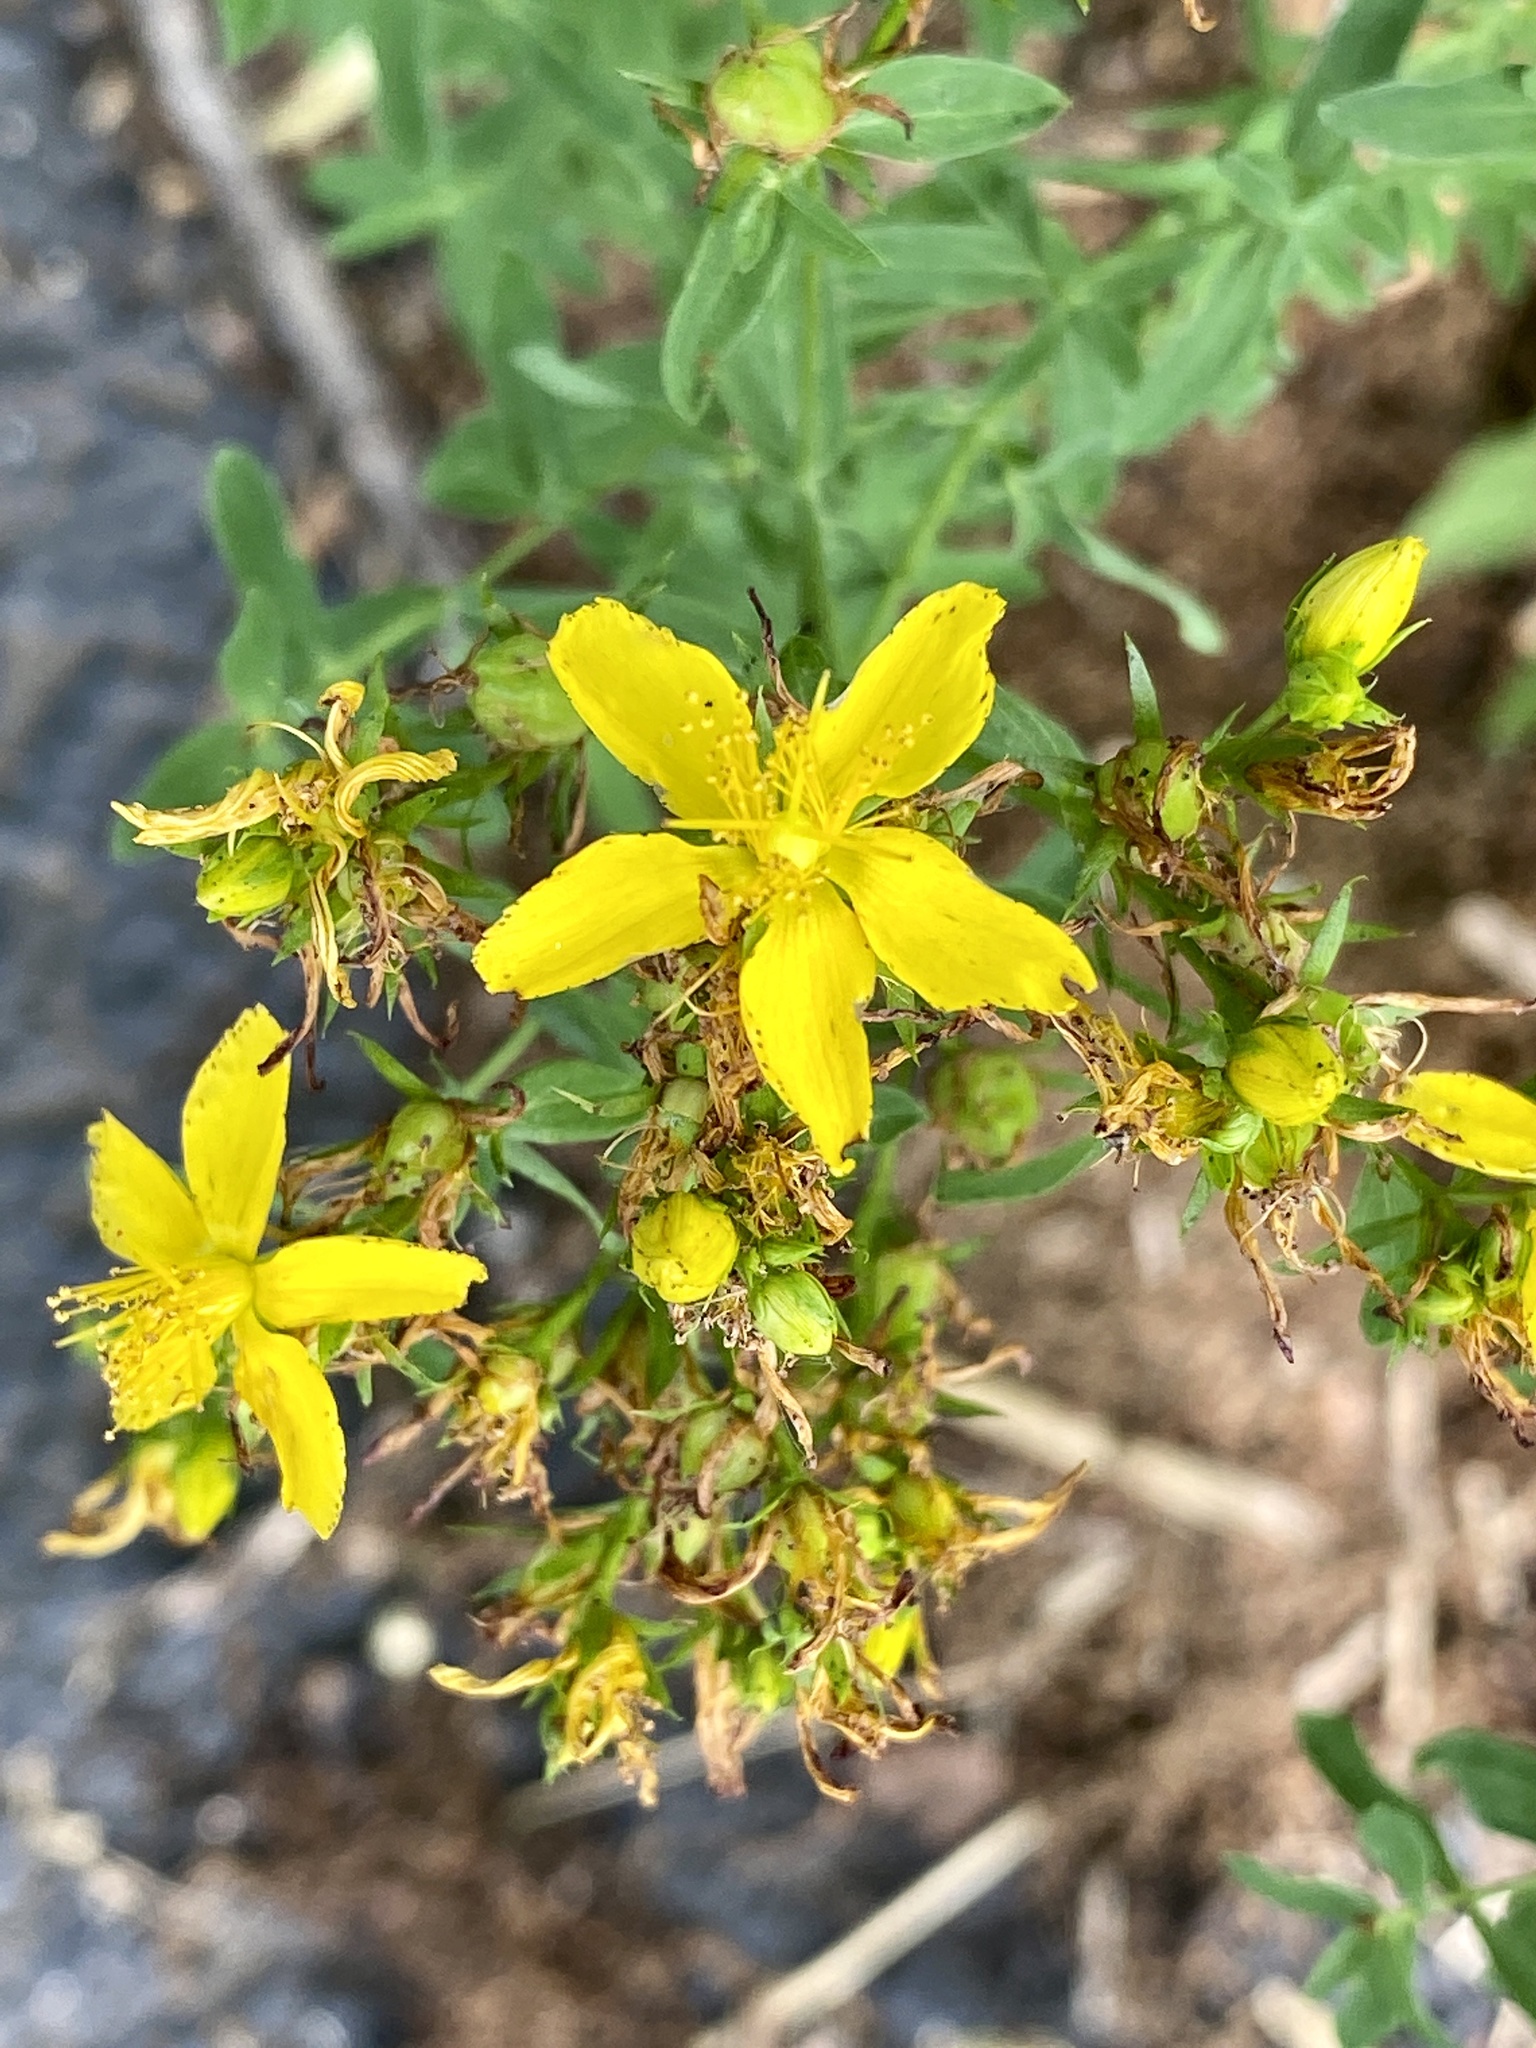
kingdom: Plantae
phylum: Tracheophyta
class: Magnoliopsida
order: Malpighiales
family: Hypericaceae
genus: Hypericum
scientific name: Hypericum perforatum
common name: Common st. johnswort
